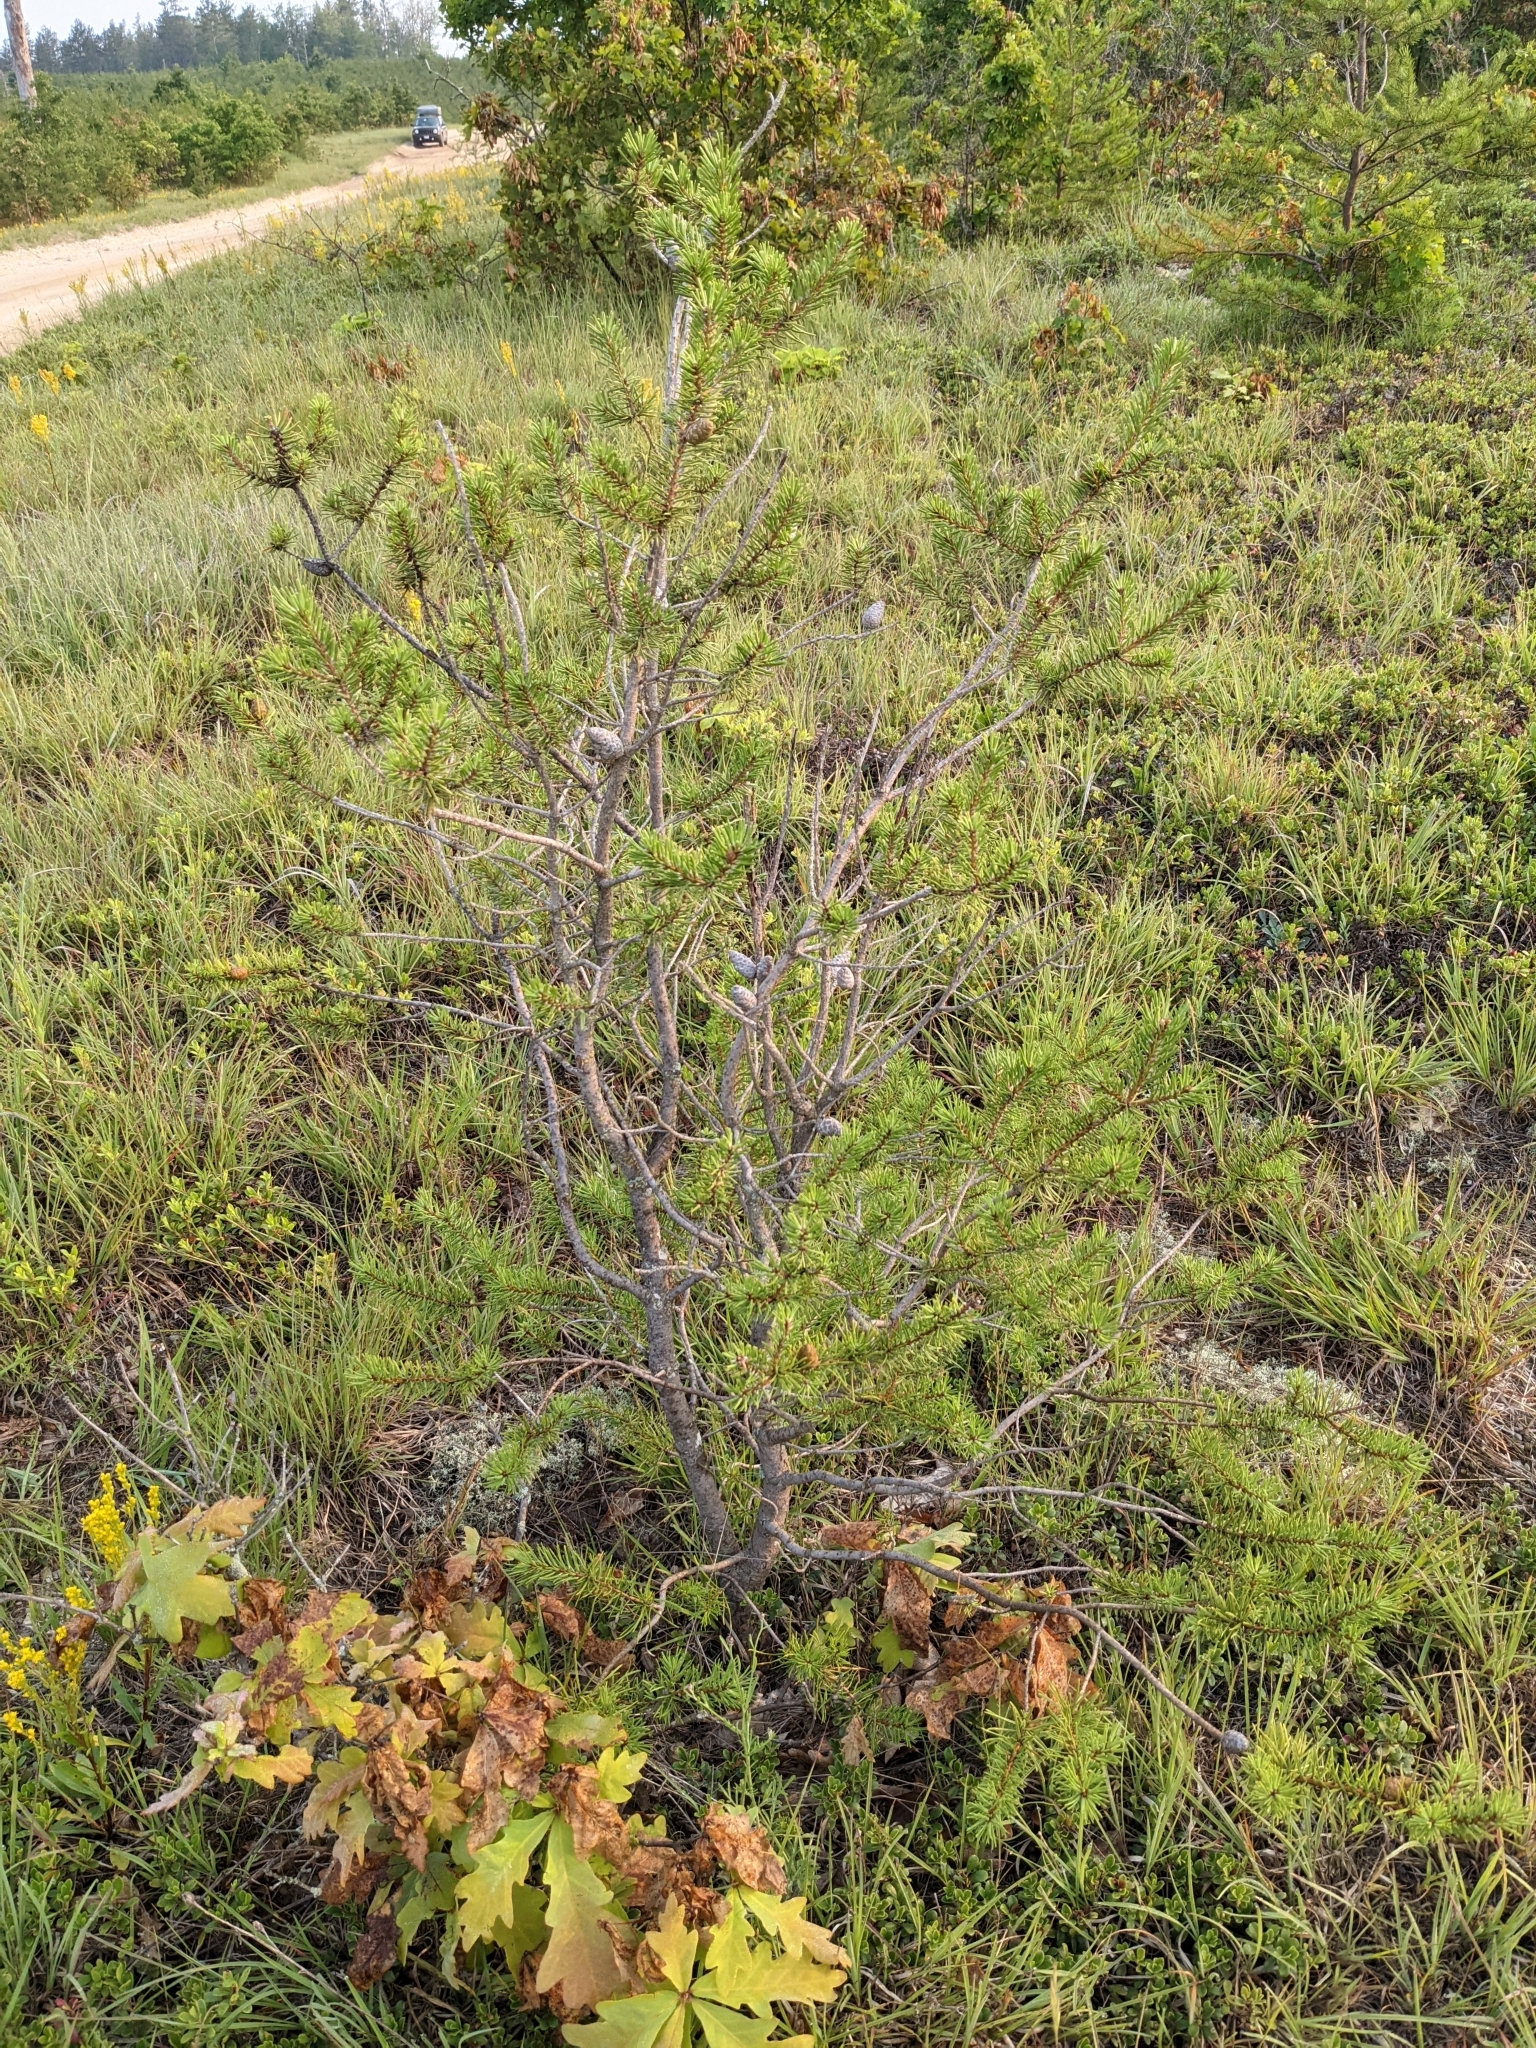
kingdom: Plantae
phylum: Tracheophyta
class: Pinopsida
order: Pinales
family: Pinaceae
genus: Pinus
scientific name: Pinus banksiana
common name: Jack pine
